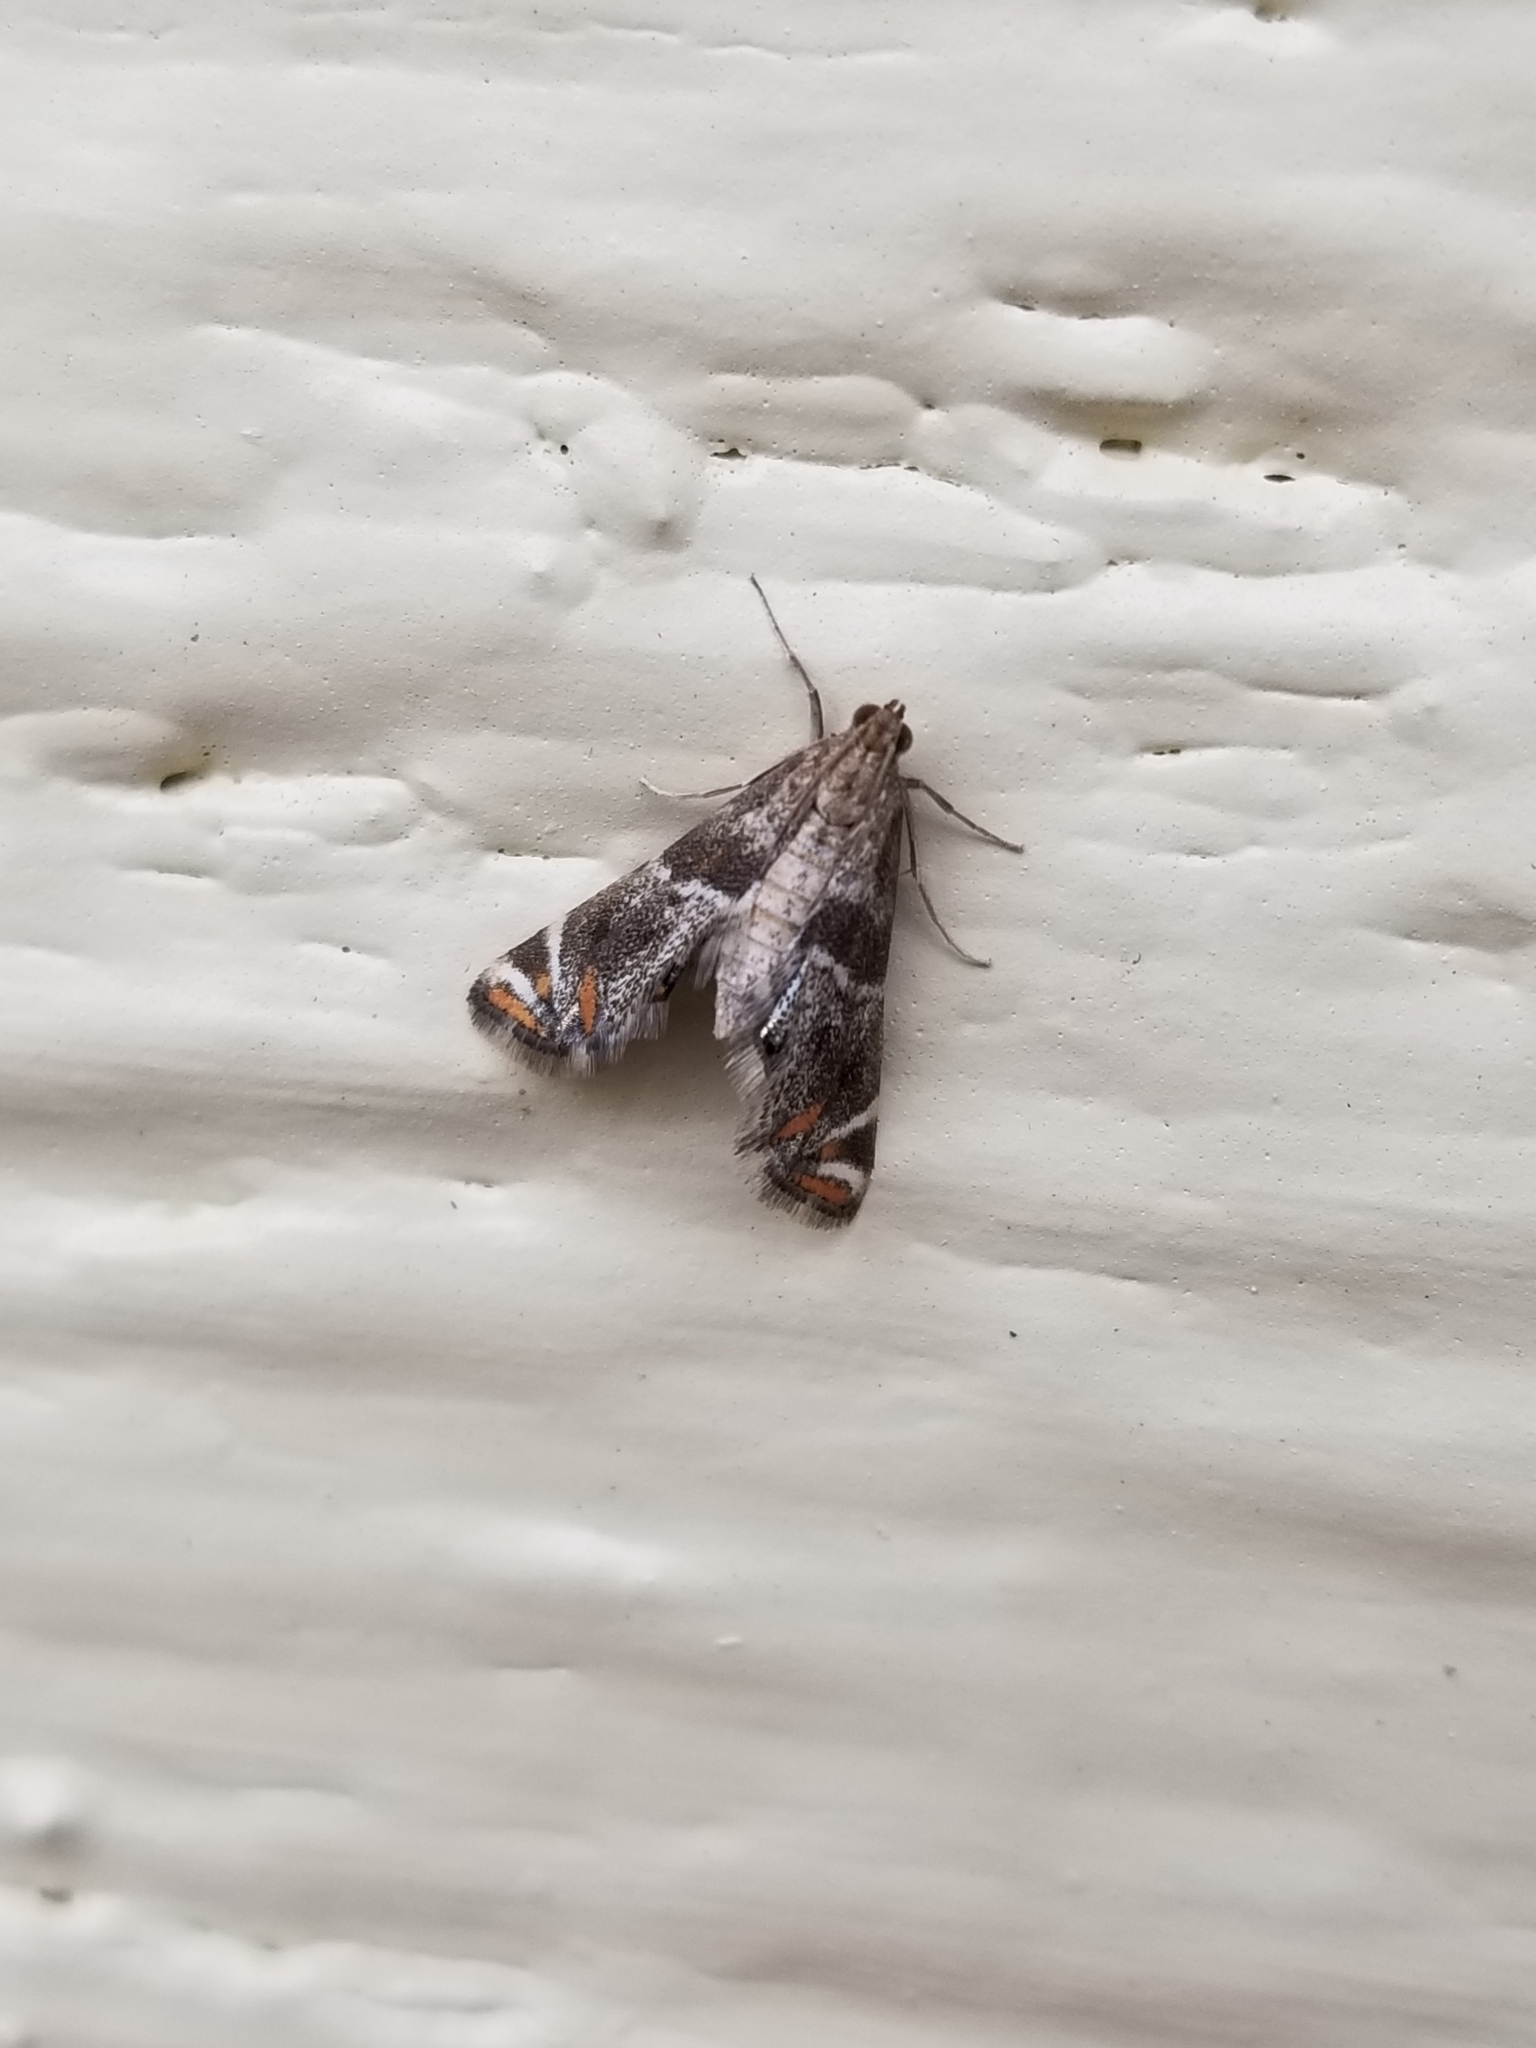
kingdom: Animalia
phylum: Arthropoda
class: Insecta
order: Lepidoptera
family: Crambidae
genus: Petrophila
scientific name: Petrophila jaliscalis
